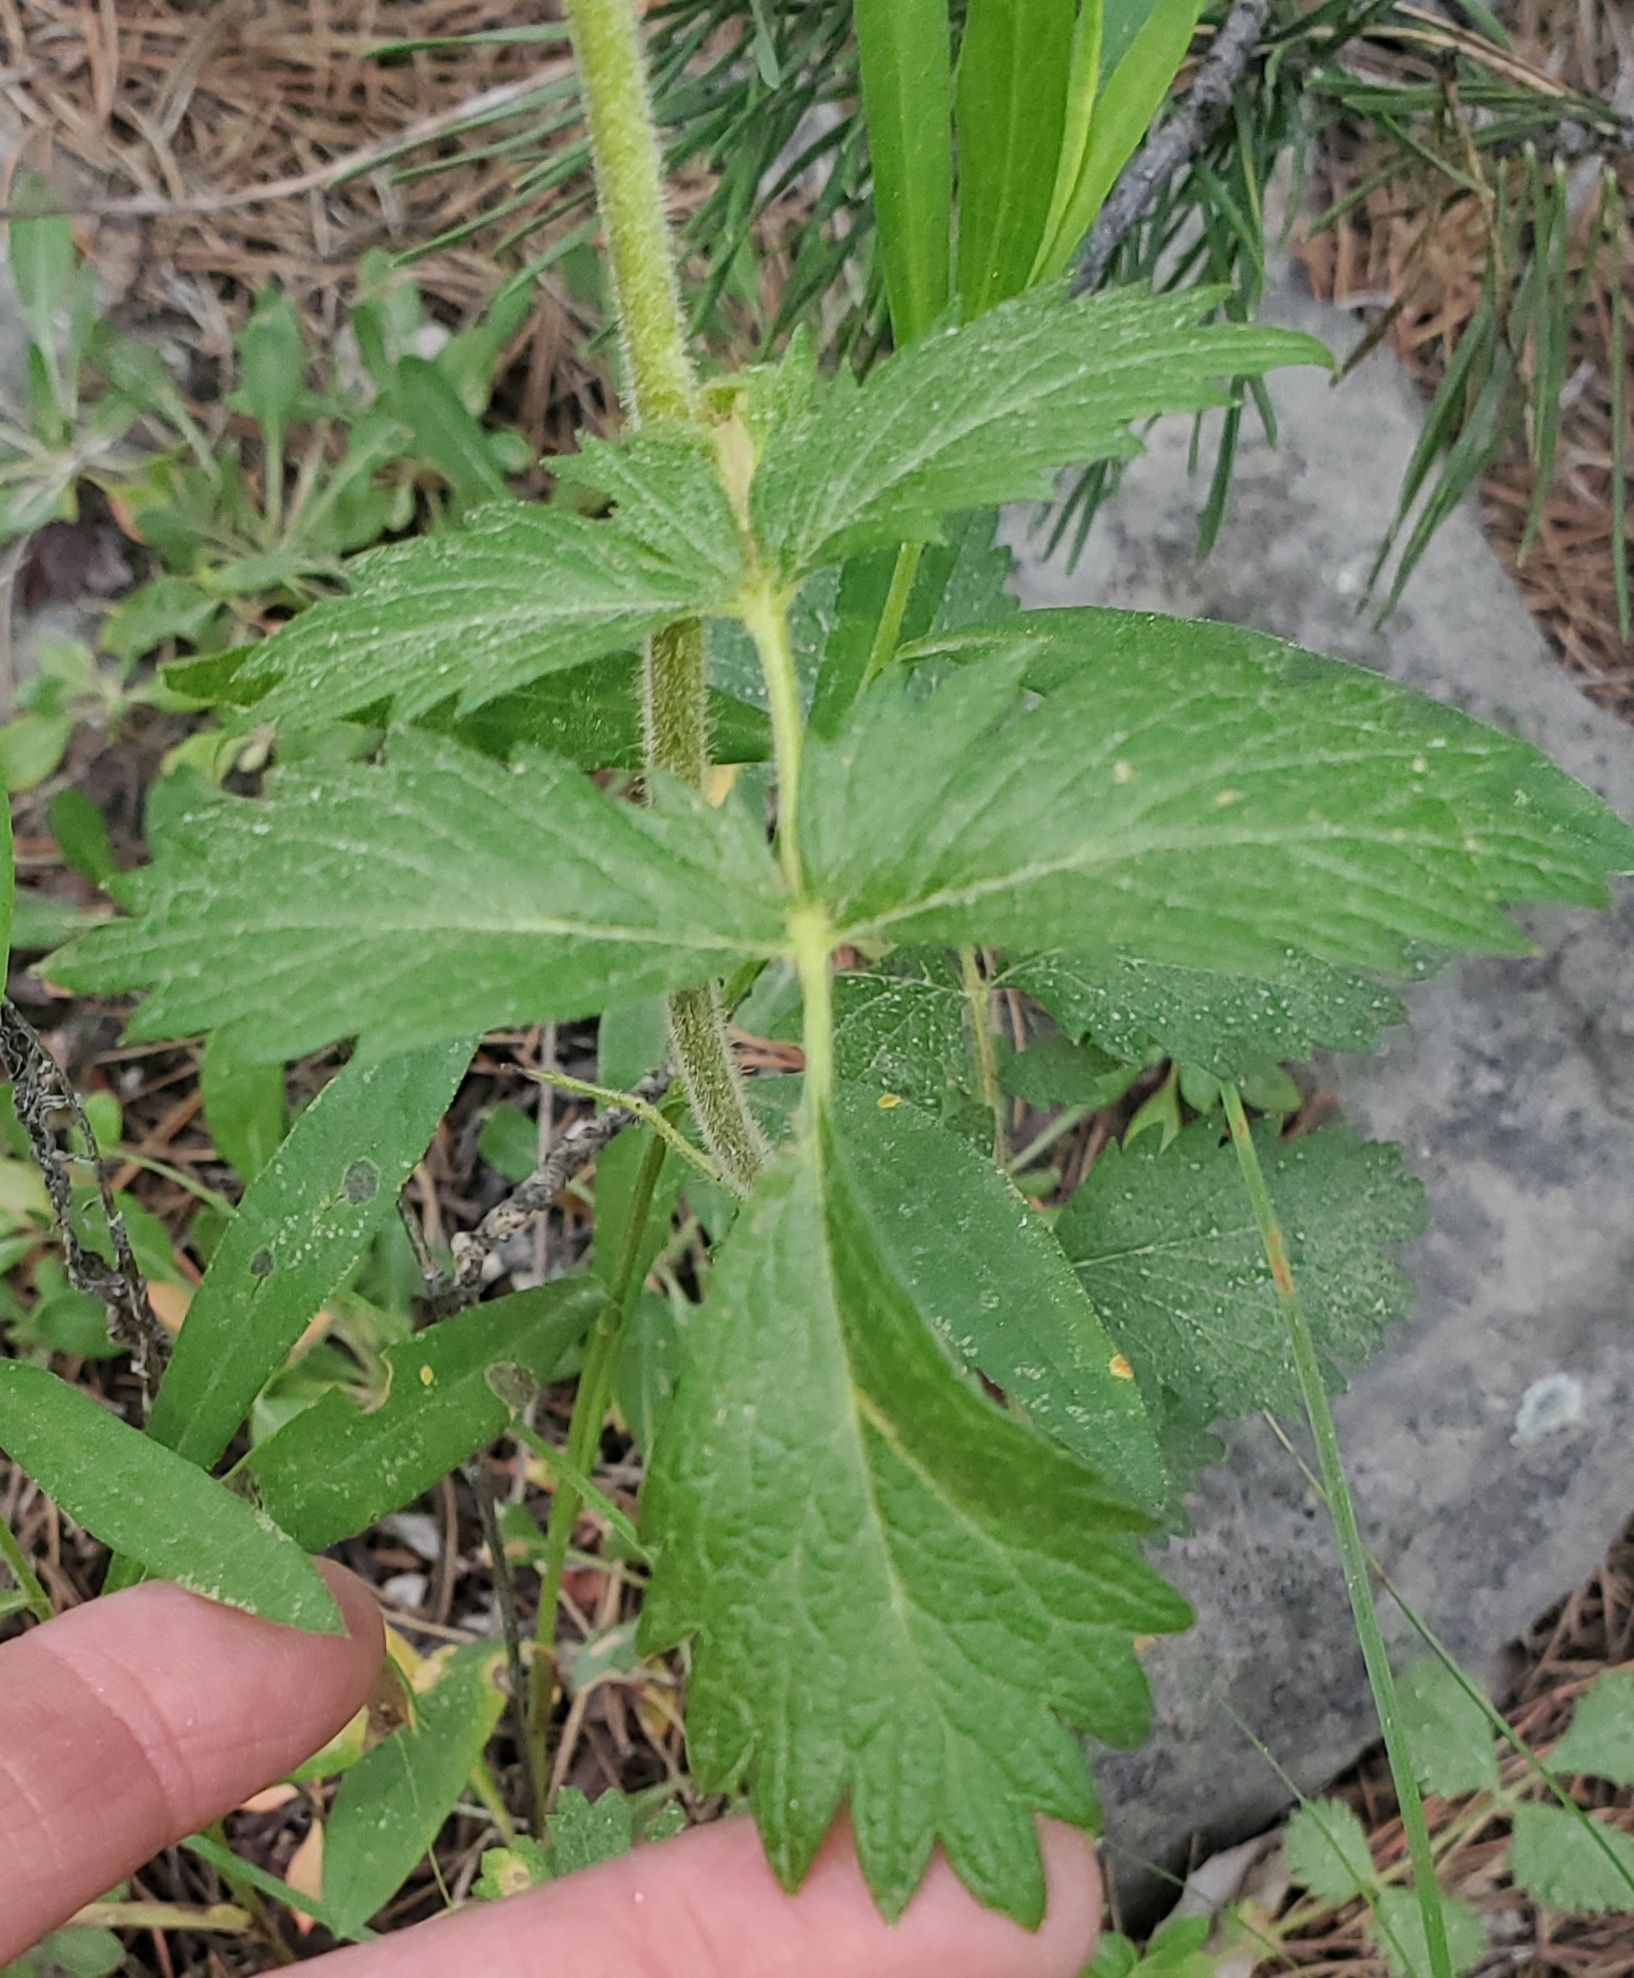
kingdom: Plantae
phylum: Tracheophyta
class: Magnoliopsida
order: Rosales
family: Rosaceae
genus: Drymocallis
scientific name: Drymocallis arguta
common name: Tall cinquefoil
